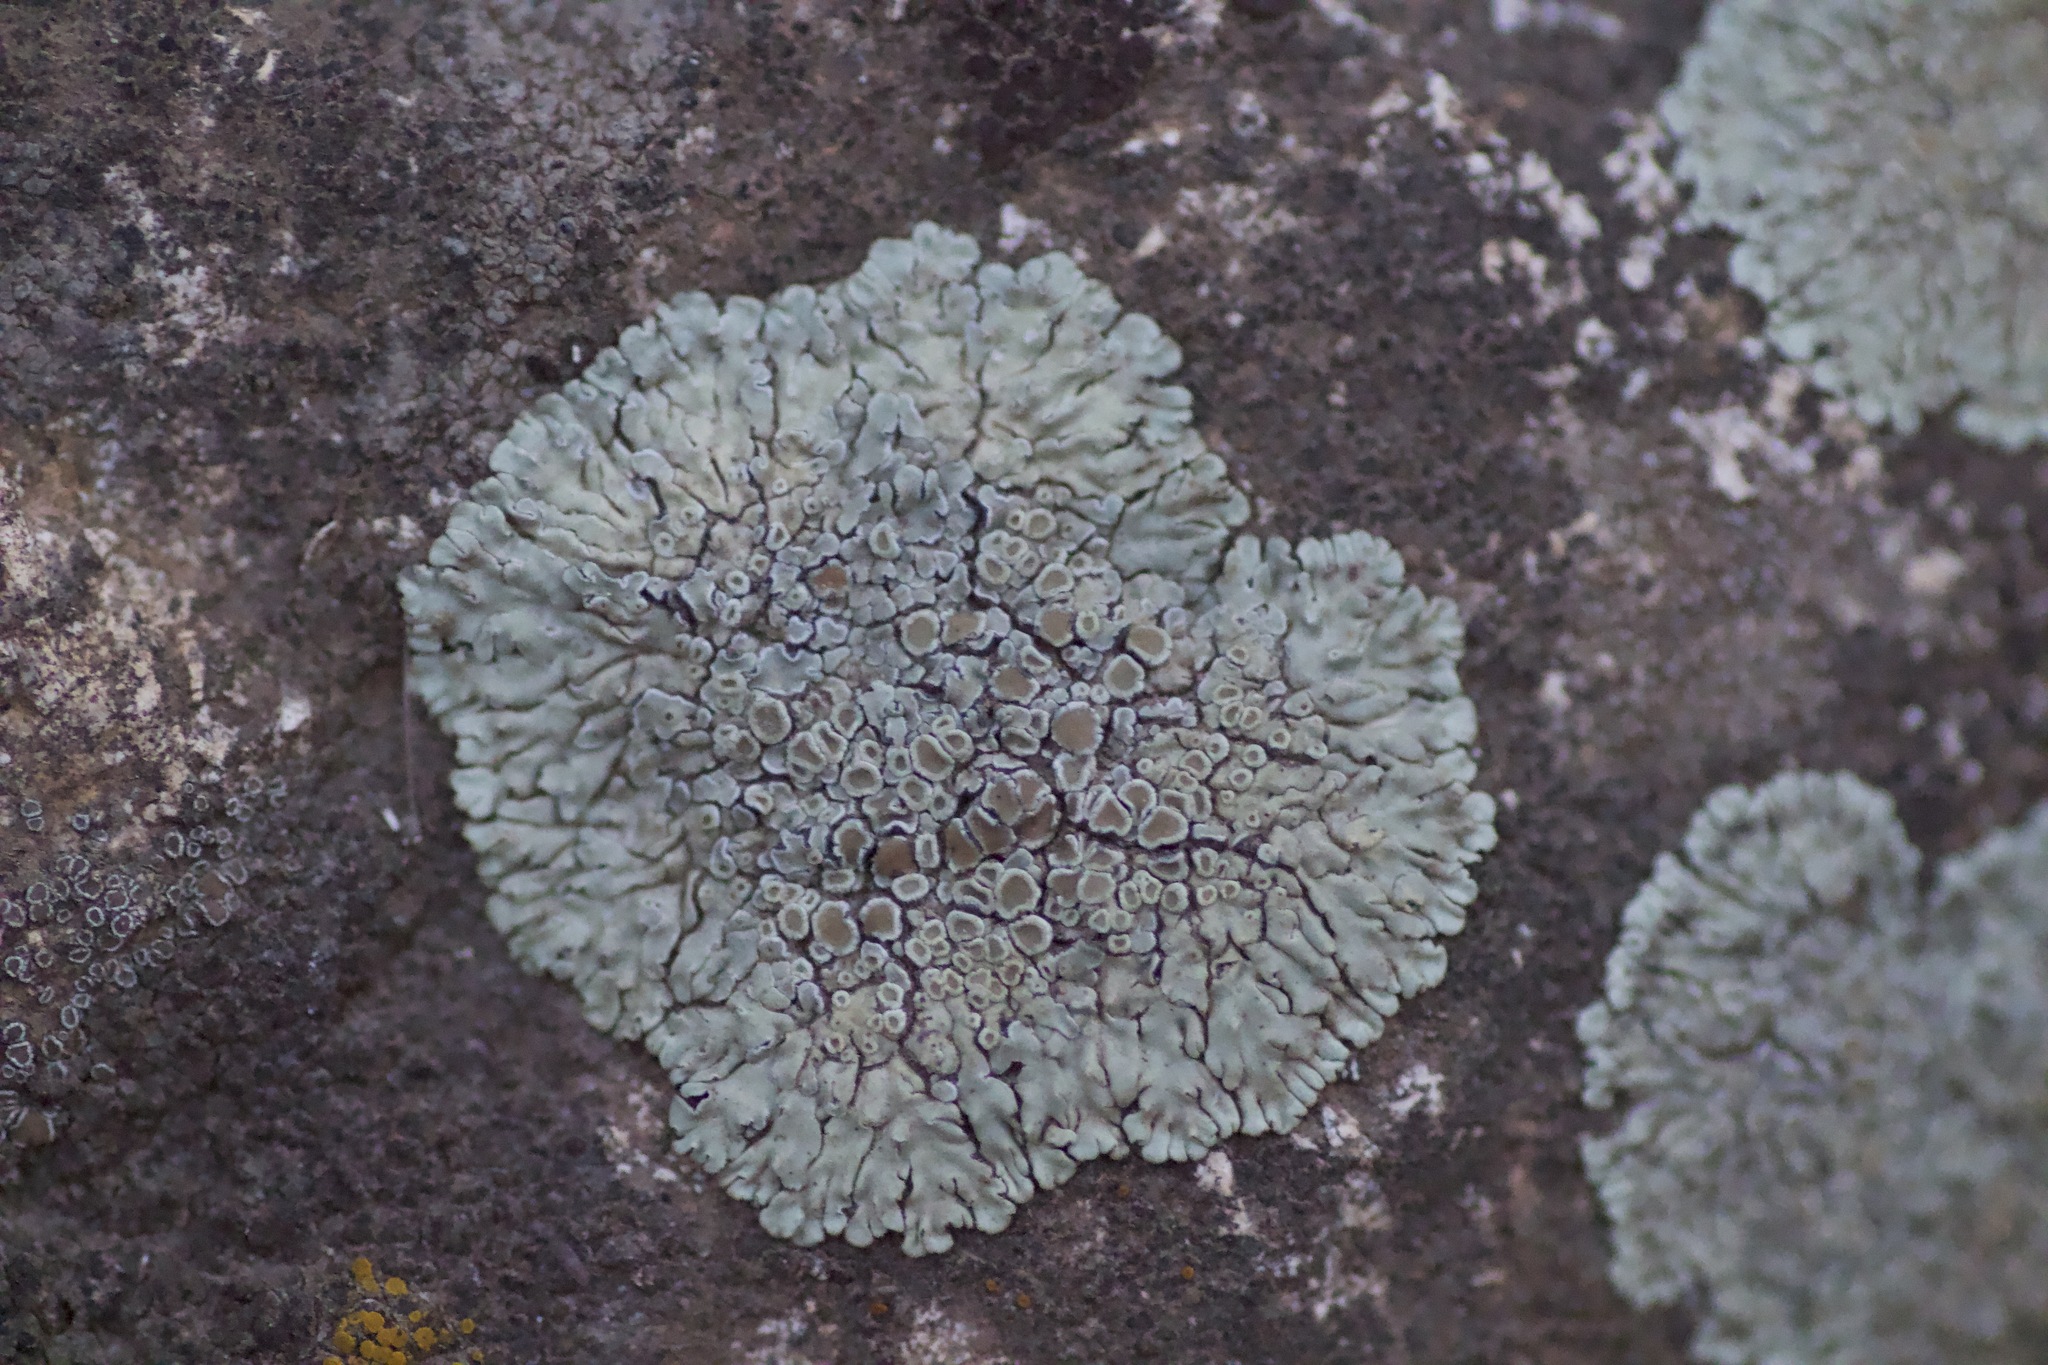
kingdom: Fungi
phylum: Ascomycota
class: Lecanoromycetes
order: Lecanorales
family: Lecanoraceae
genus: Protoparmeliopsis
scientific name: Protoparmeliopsis muralis
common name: Stonewall rim lichen
